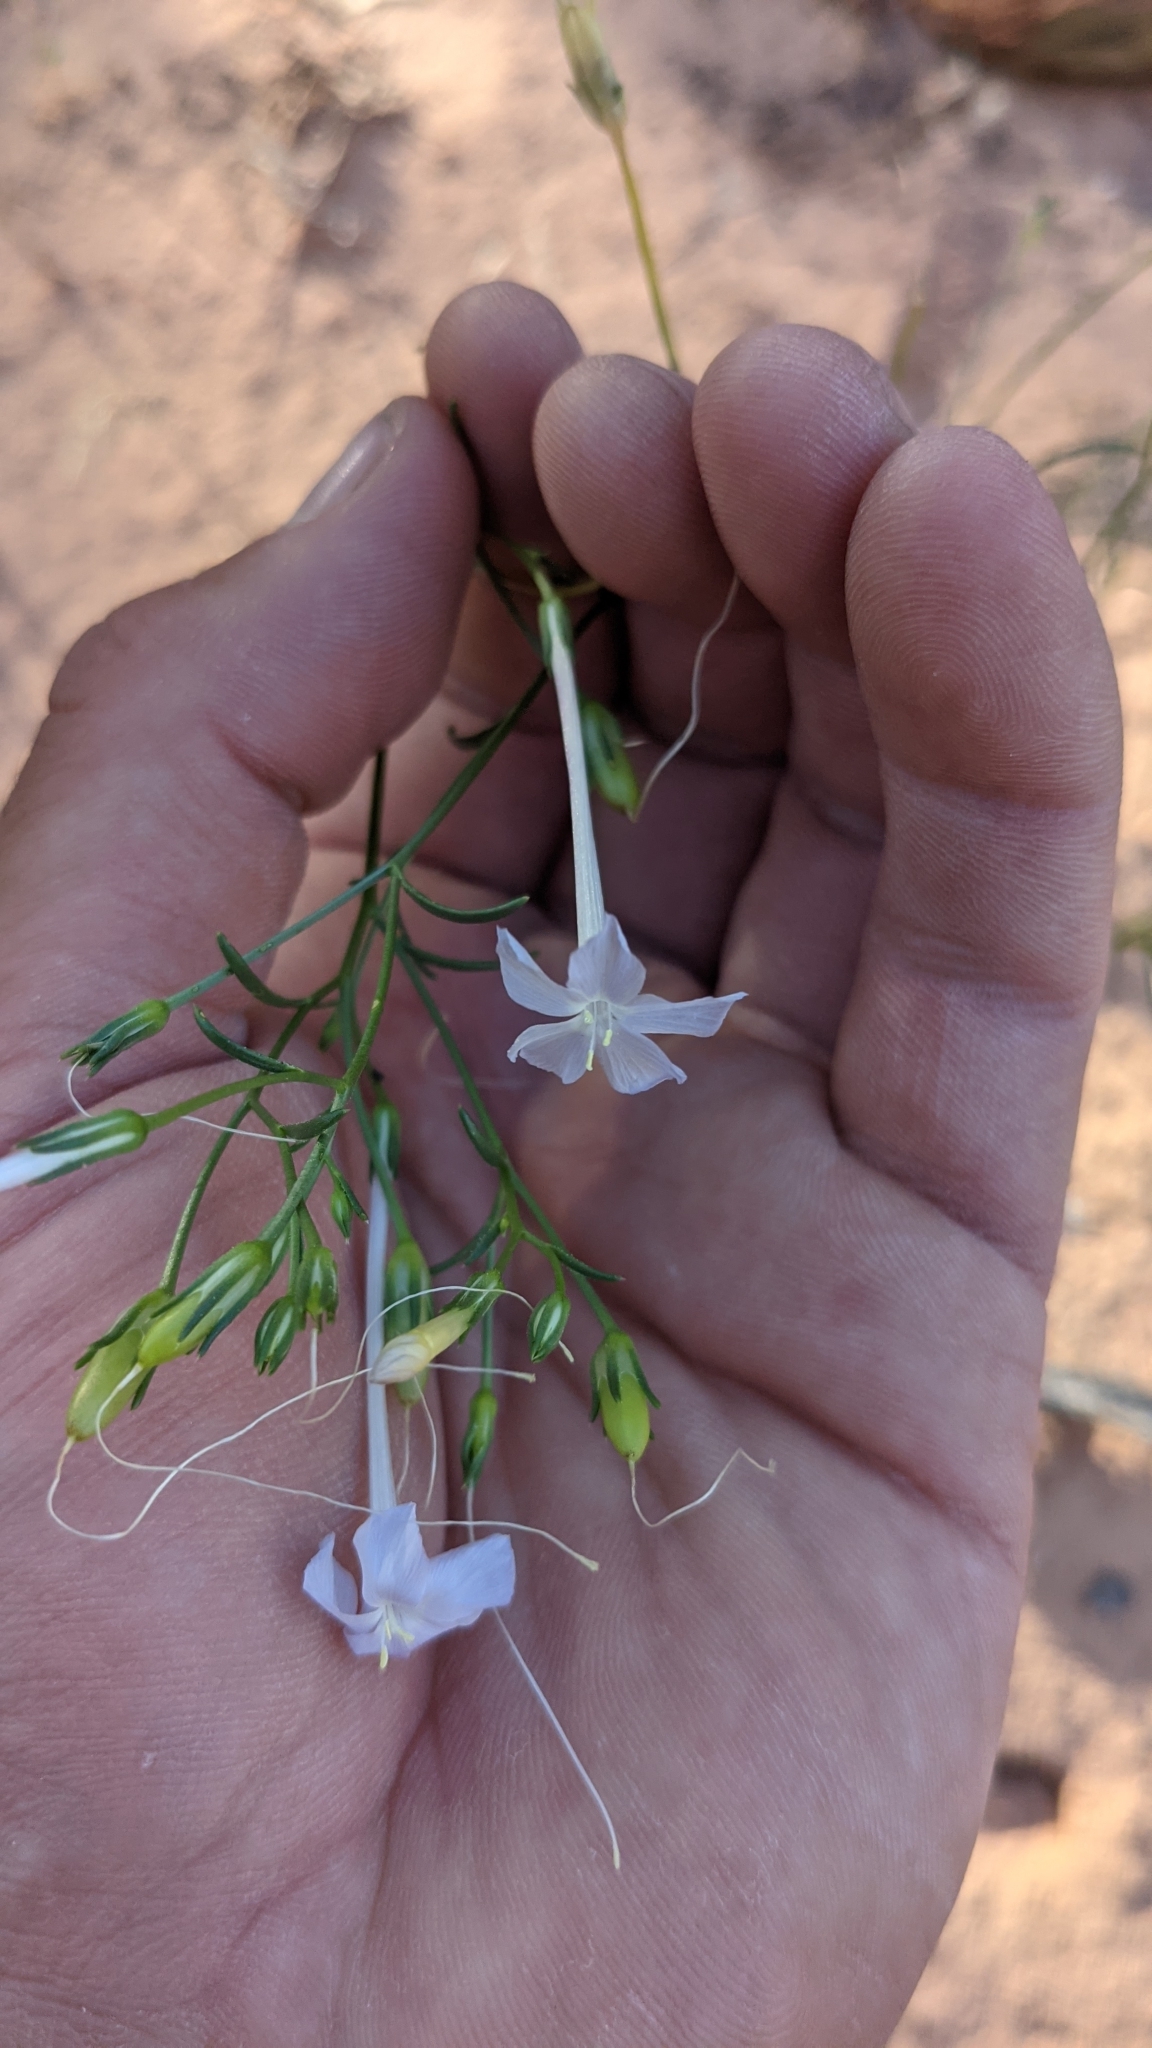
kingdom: Plantae
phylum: Tracheophyta
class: Magnoliopsida
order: Ericales
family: Polemoniaceae
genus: Ipomopsis
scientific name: Ipomopsis longiflora
